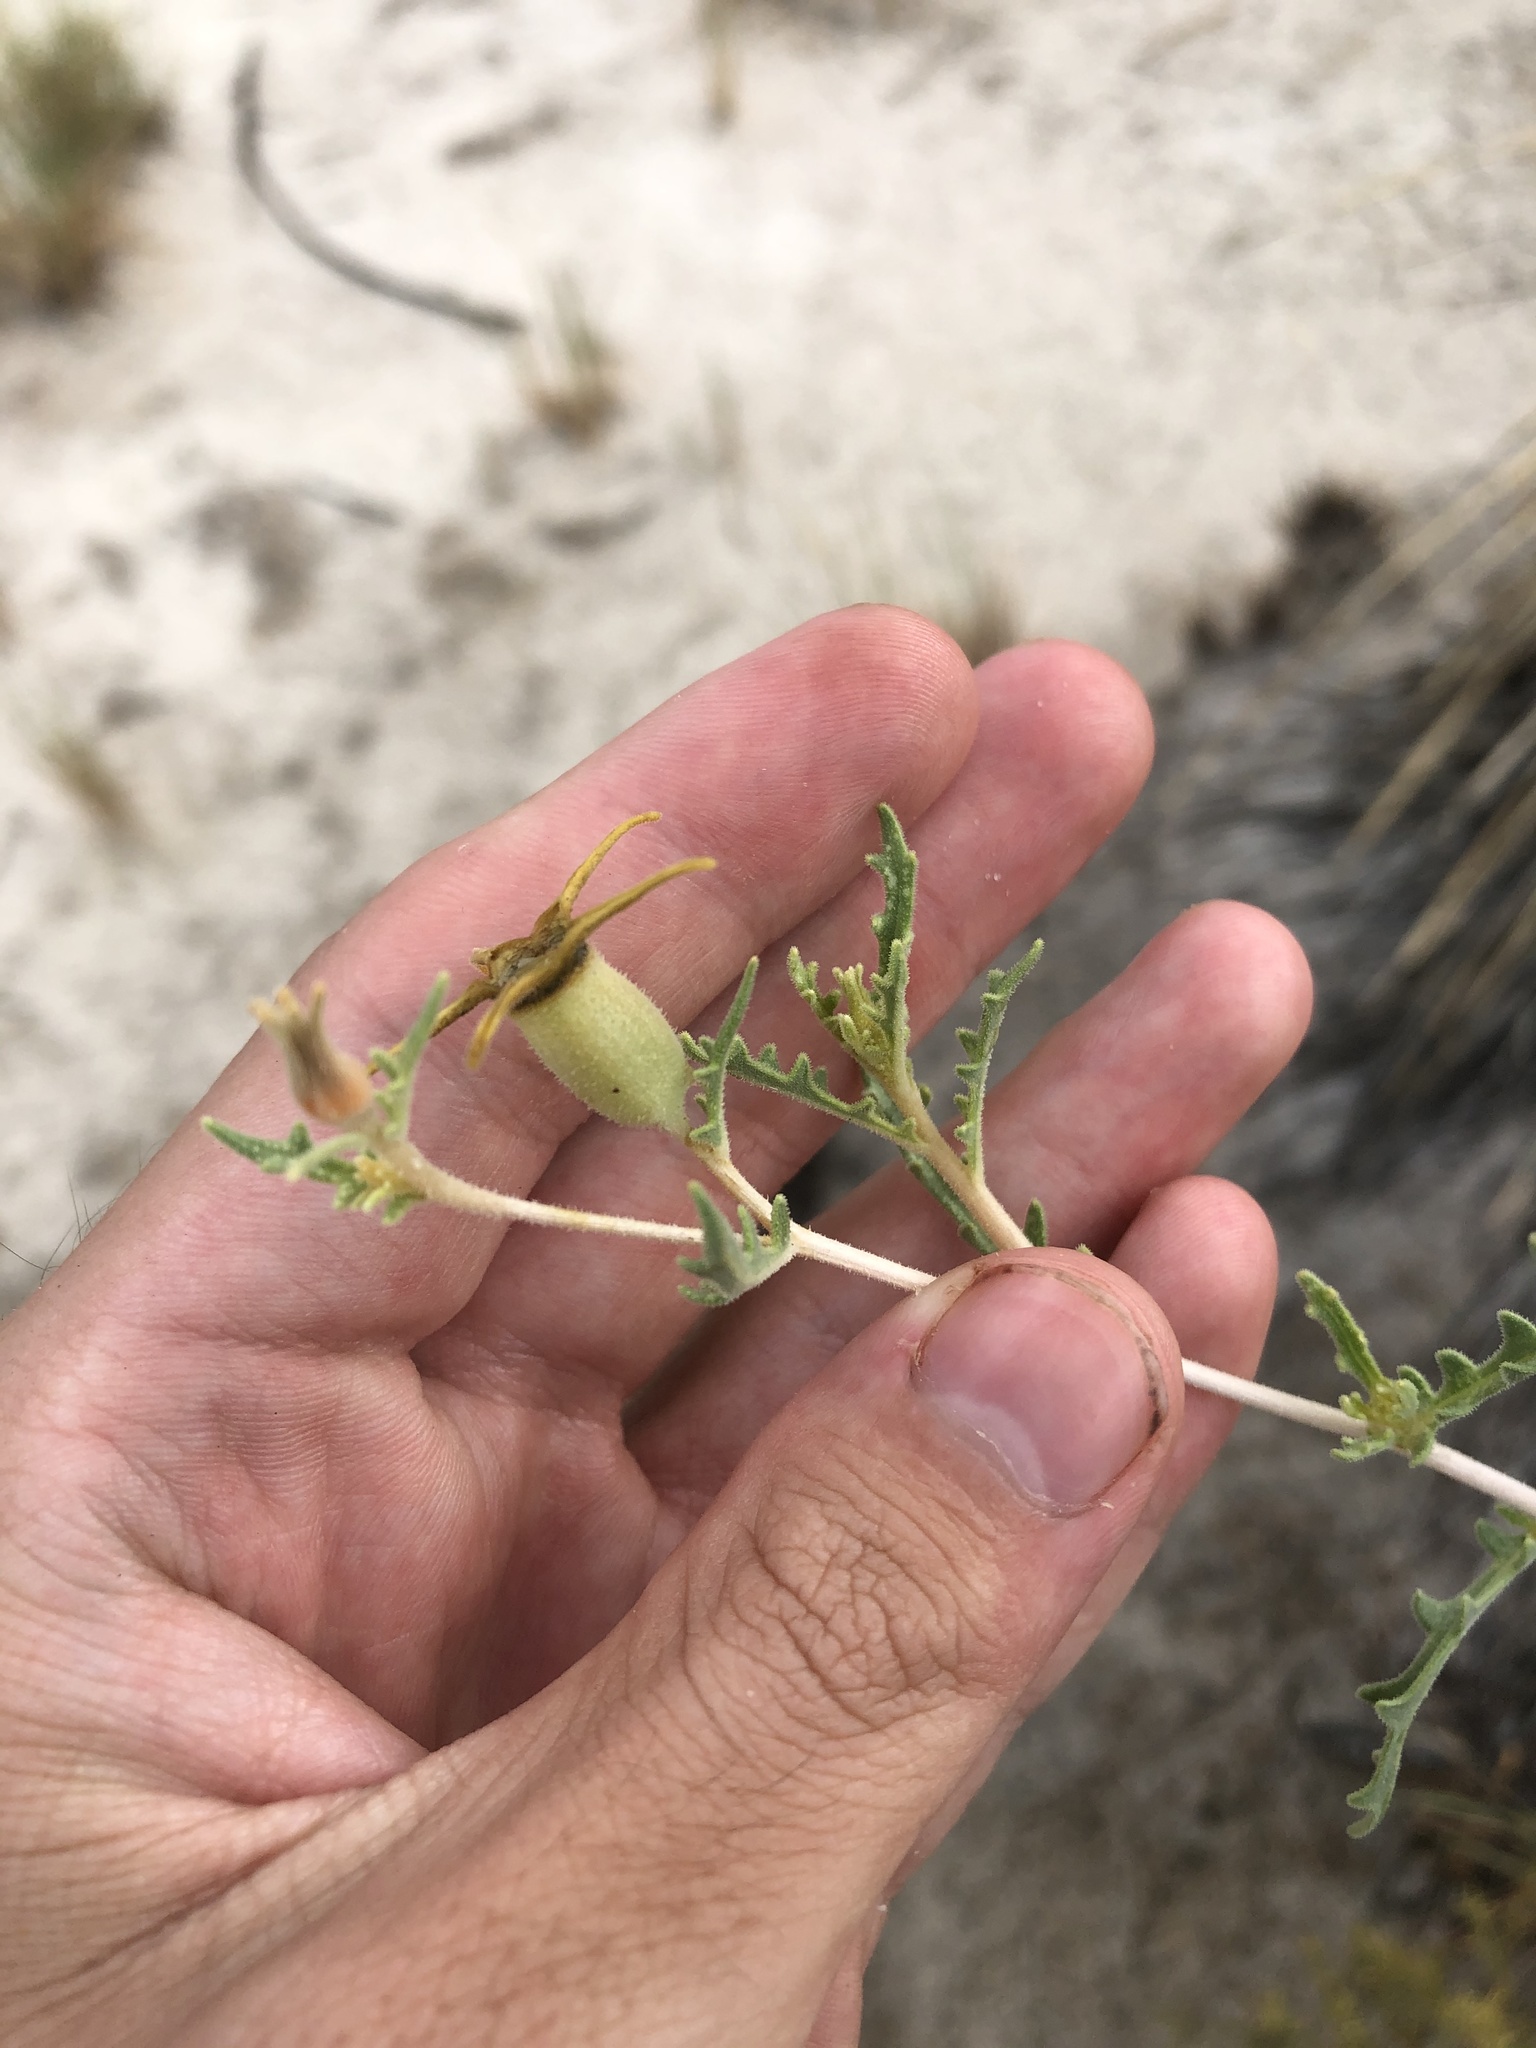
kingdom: Plantae
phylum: Tracheophyta
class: Magnoliopsida
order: Cornales
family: Loasaceae
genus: Mentzelia
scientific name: Mentzelia procera
